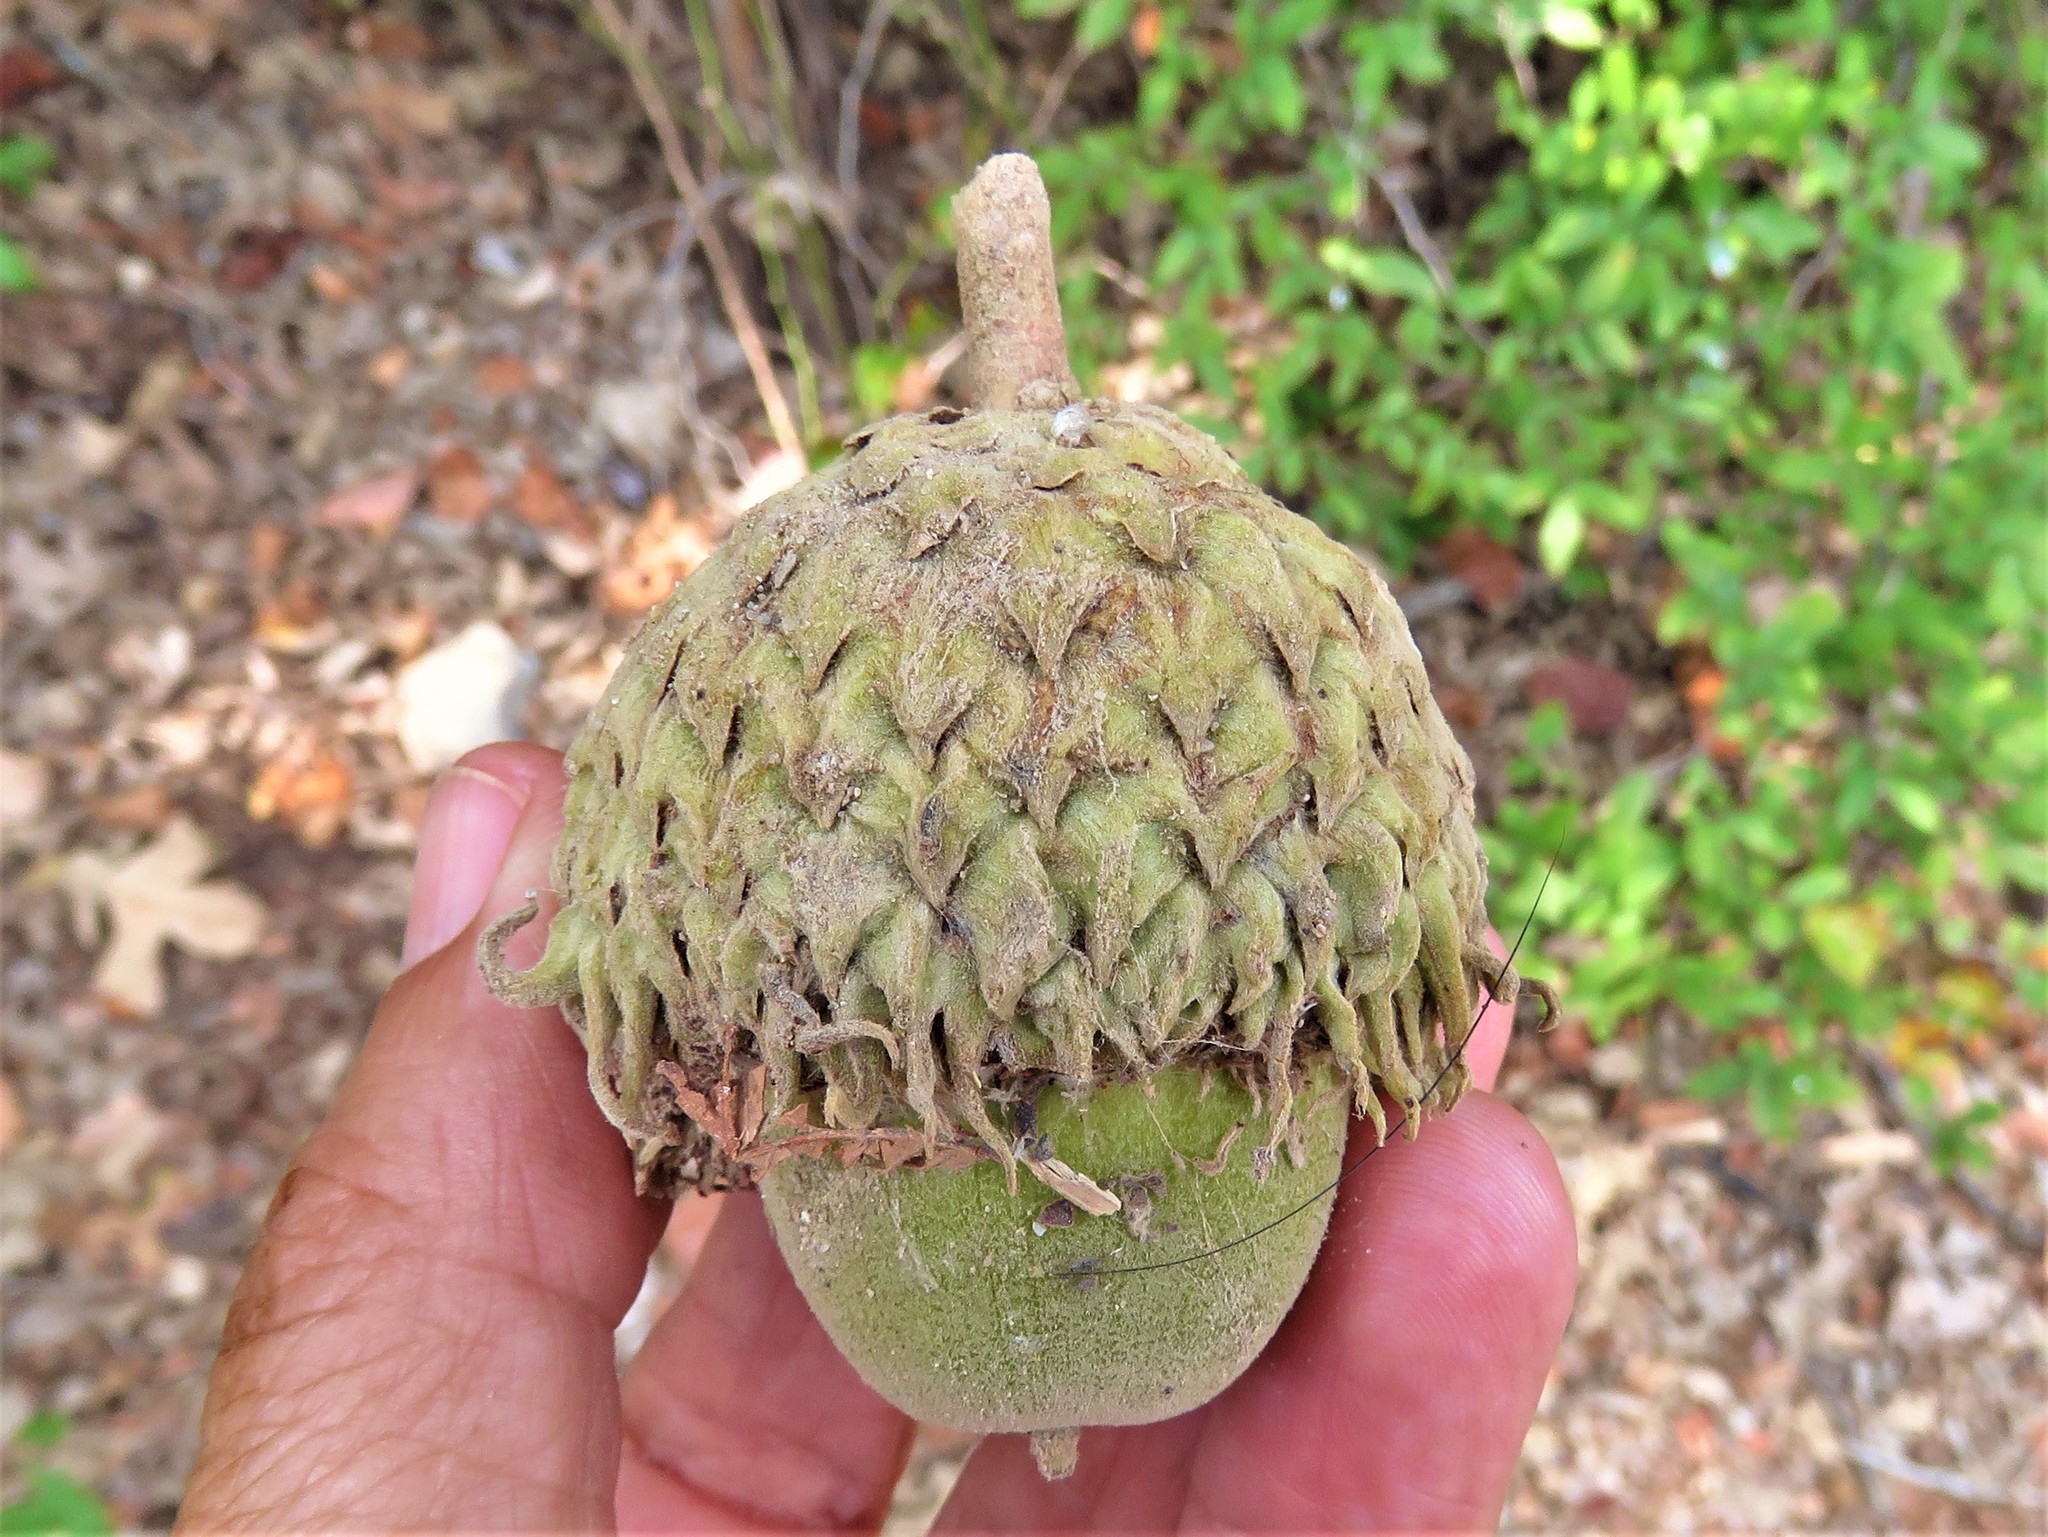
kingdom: Plantae
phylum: Tracheophyta
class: Magnoliopsida
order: Fagales
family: Fagaceae
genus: Quercus
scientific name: Quercus macrocarpa
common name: Bur oak
